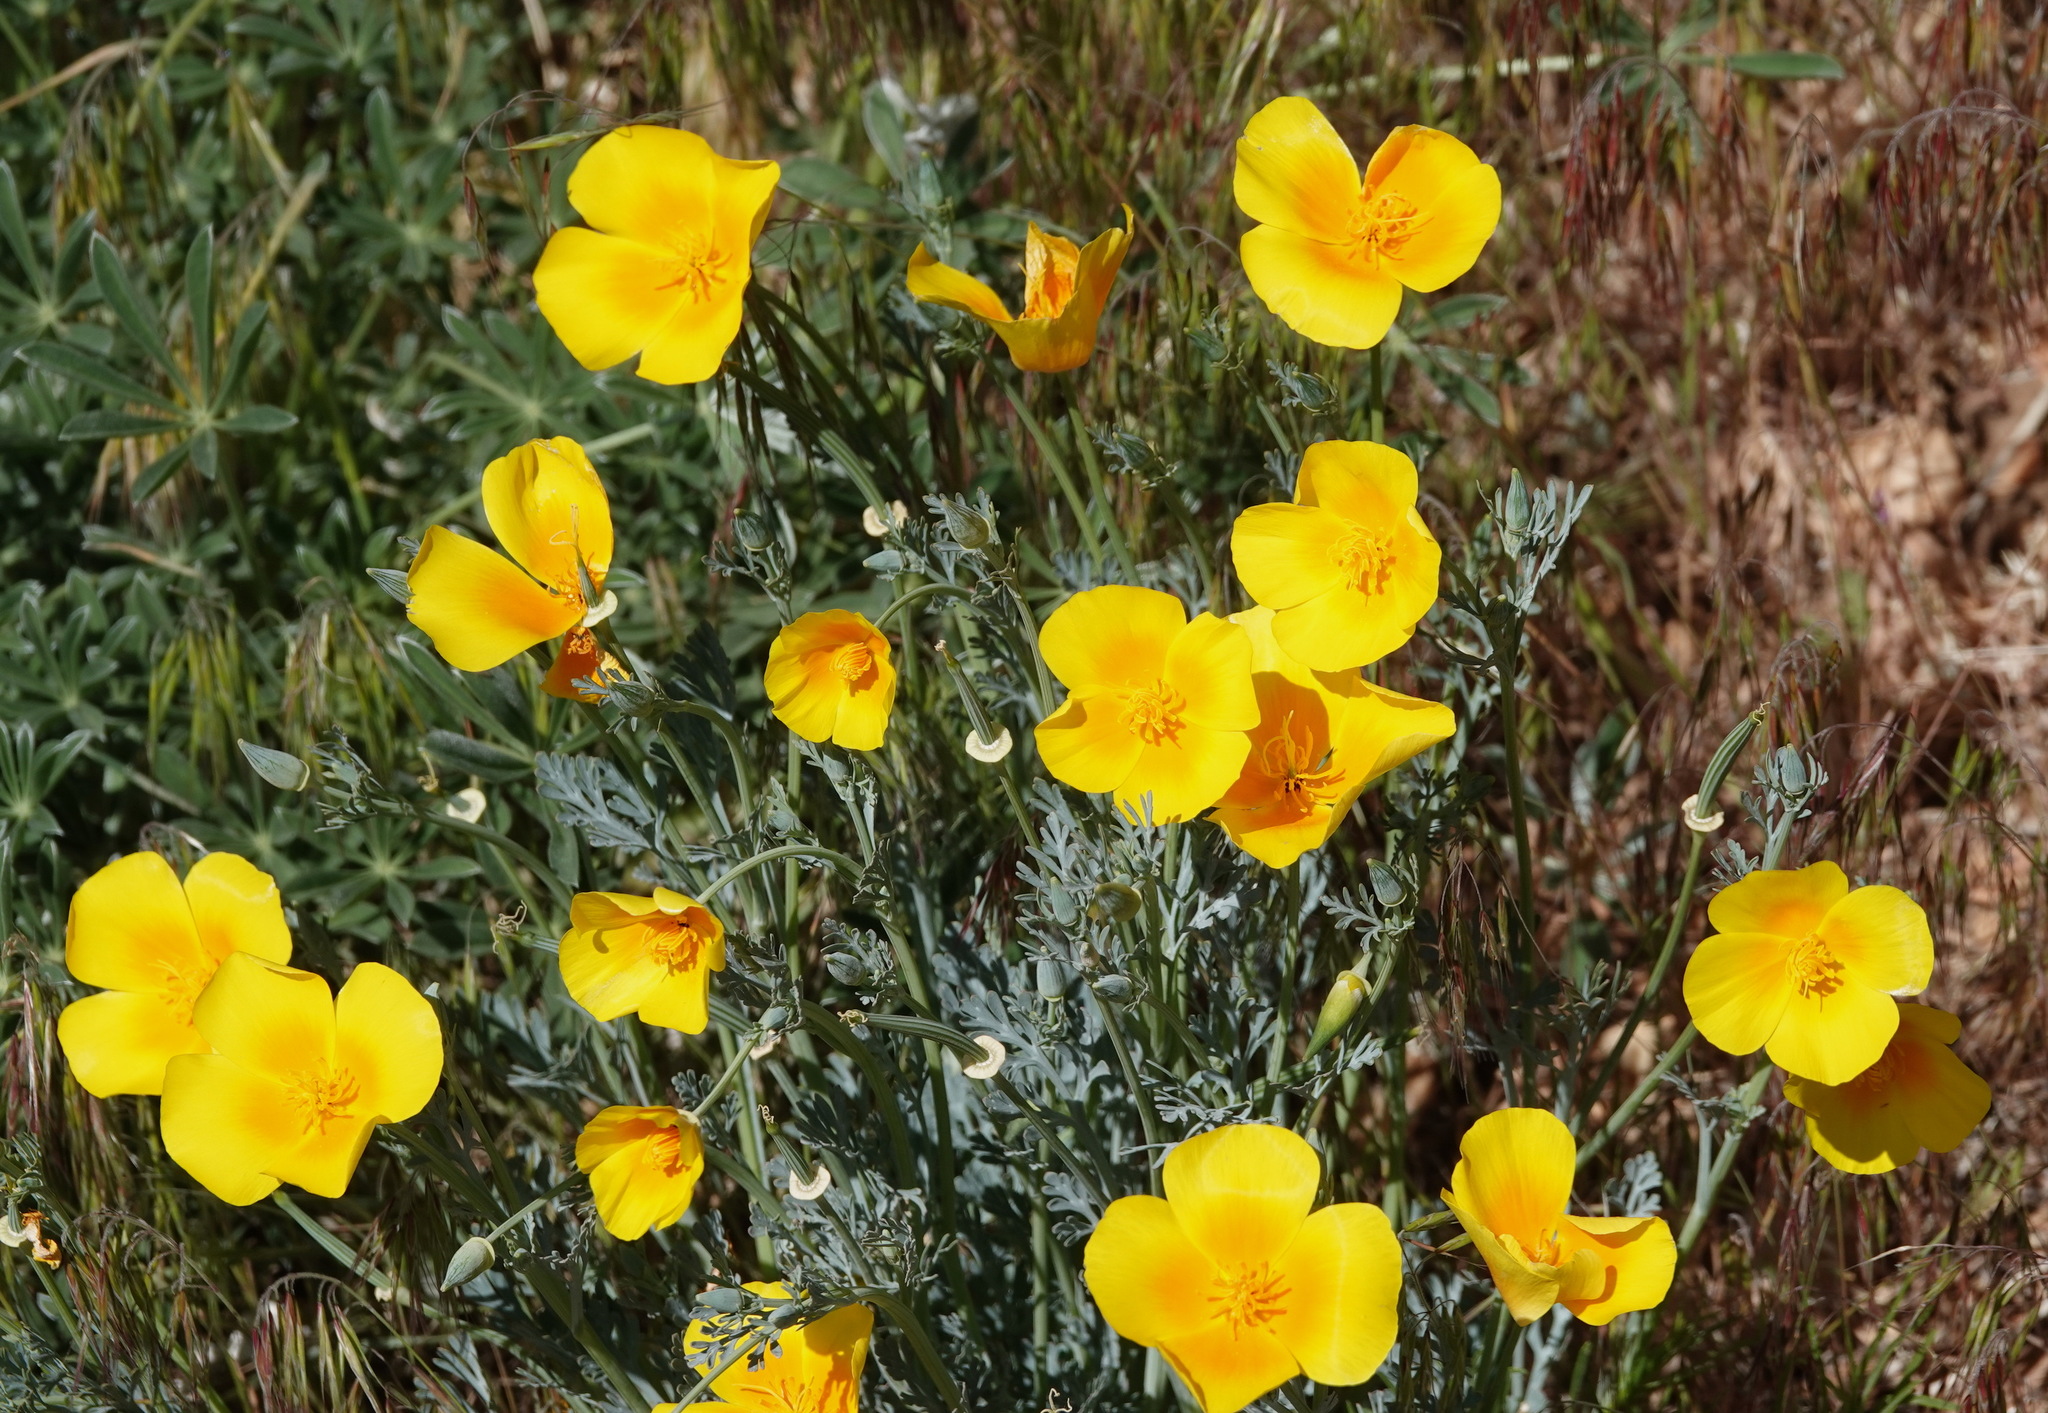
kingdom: Plantae
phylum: Tracheophyta
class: Magnoliopsida
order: Ranunculales
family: Papaveraceae
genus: Eschscholzia
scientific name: Eschscholzia californica
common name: California poppy
